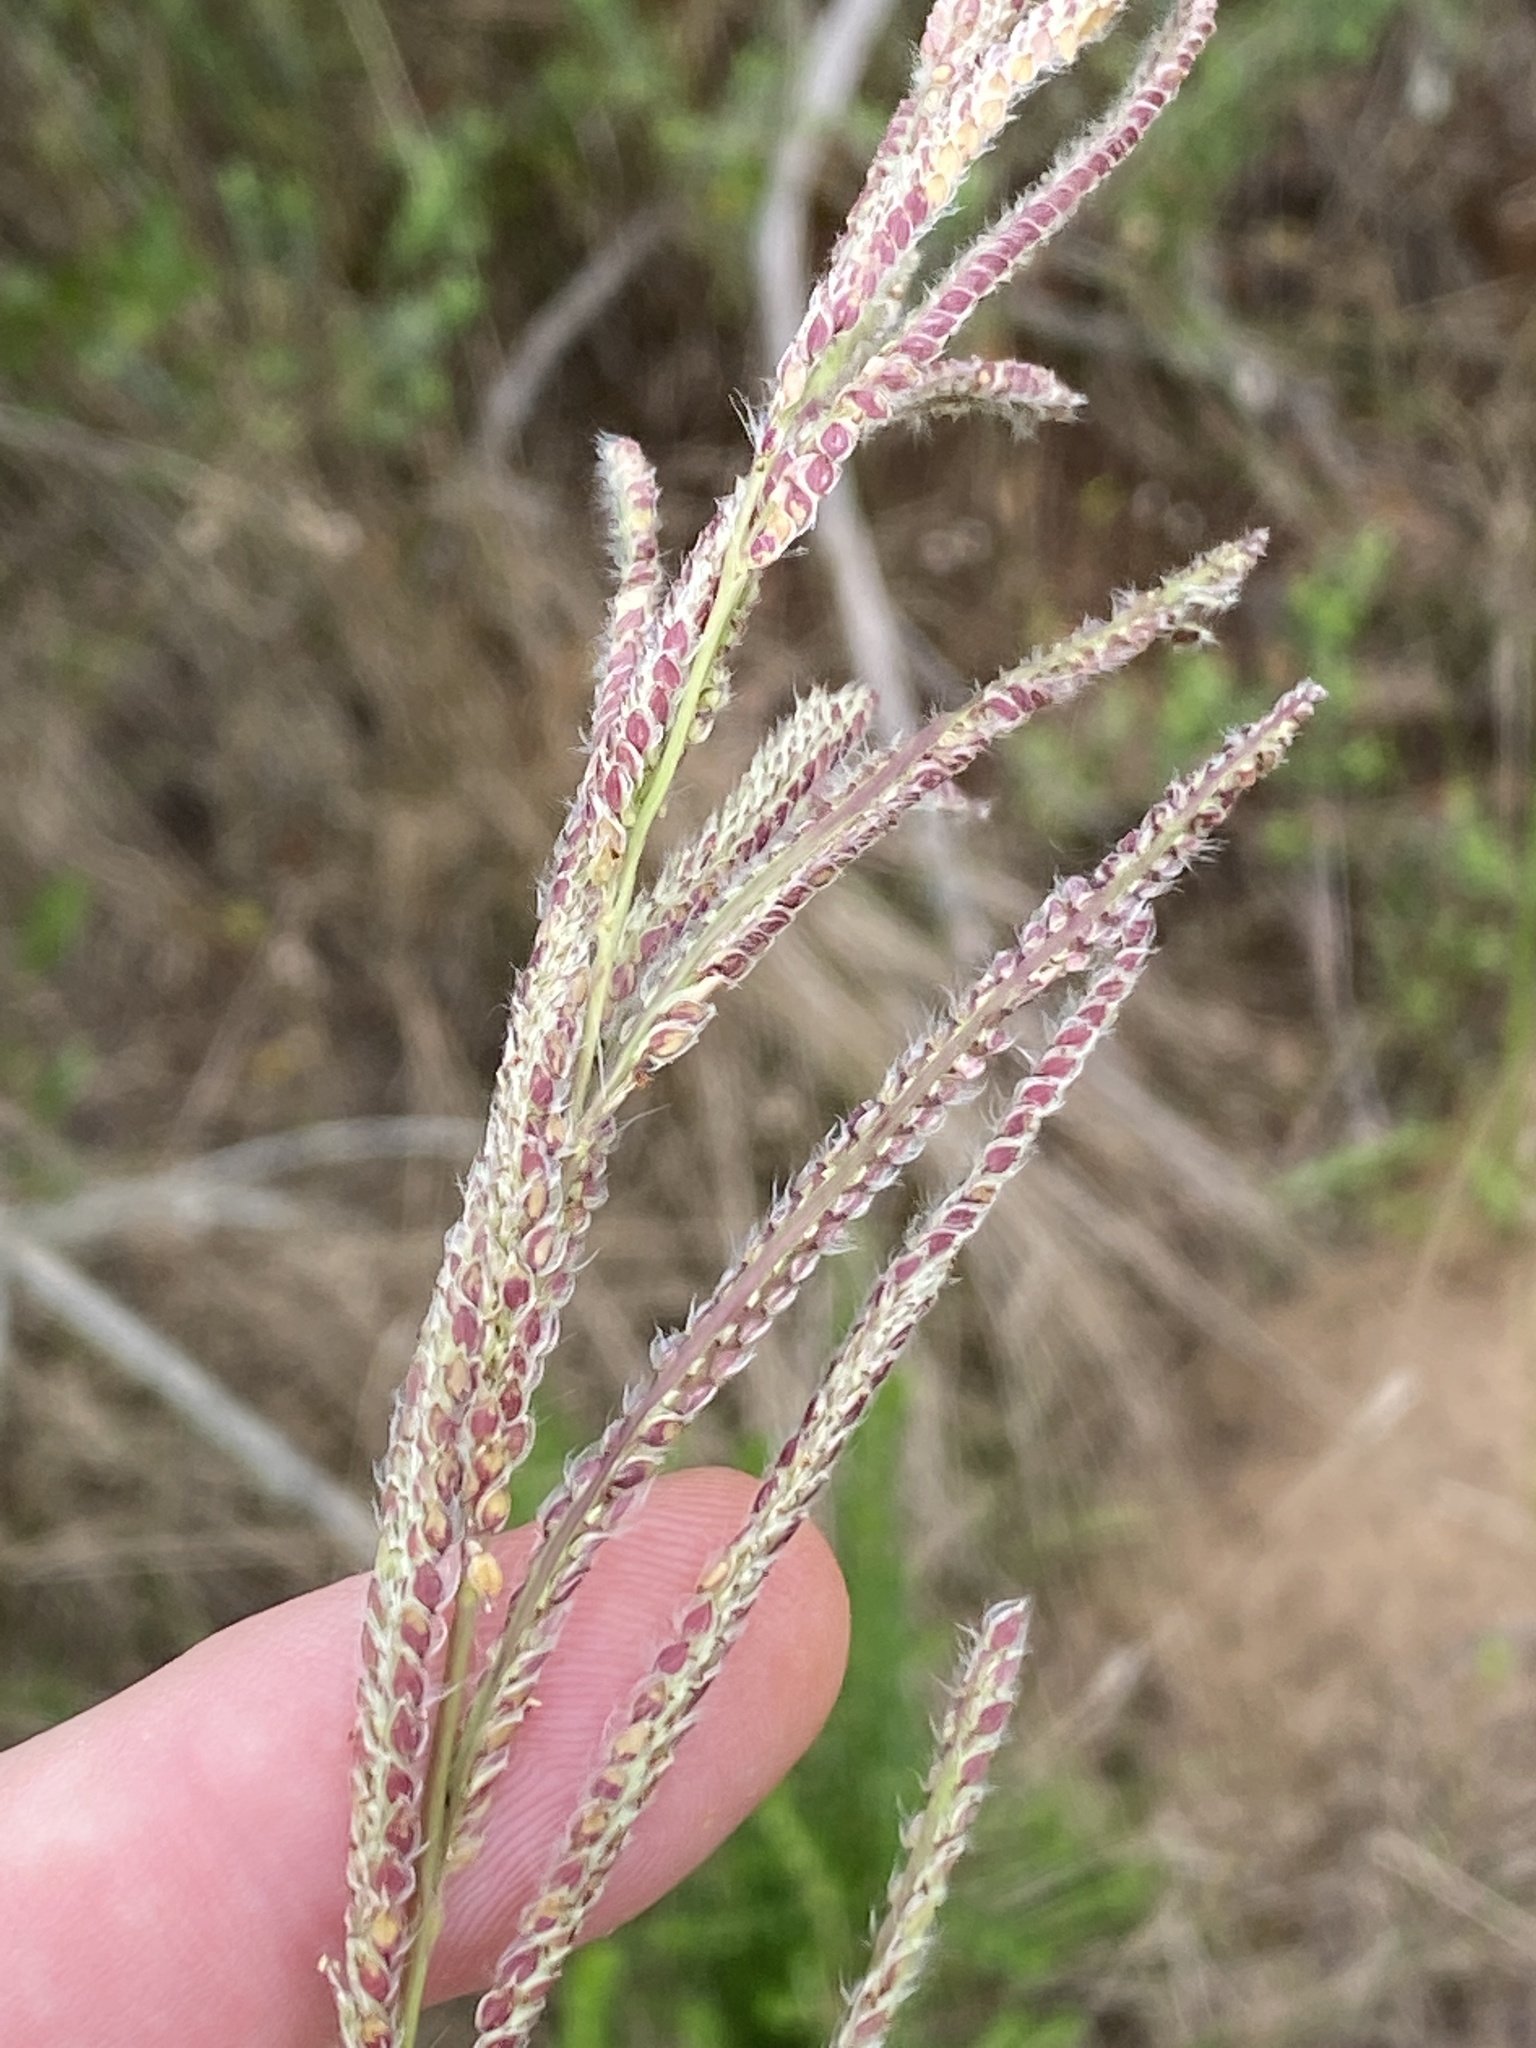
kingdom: Plantae
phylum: Tracheophyta
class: Liliopsida
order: Poales
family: Poaceae
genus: Paspalum
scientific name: Paspalum urvillei
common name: Vasey's grass
